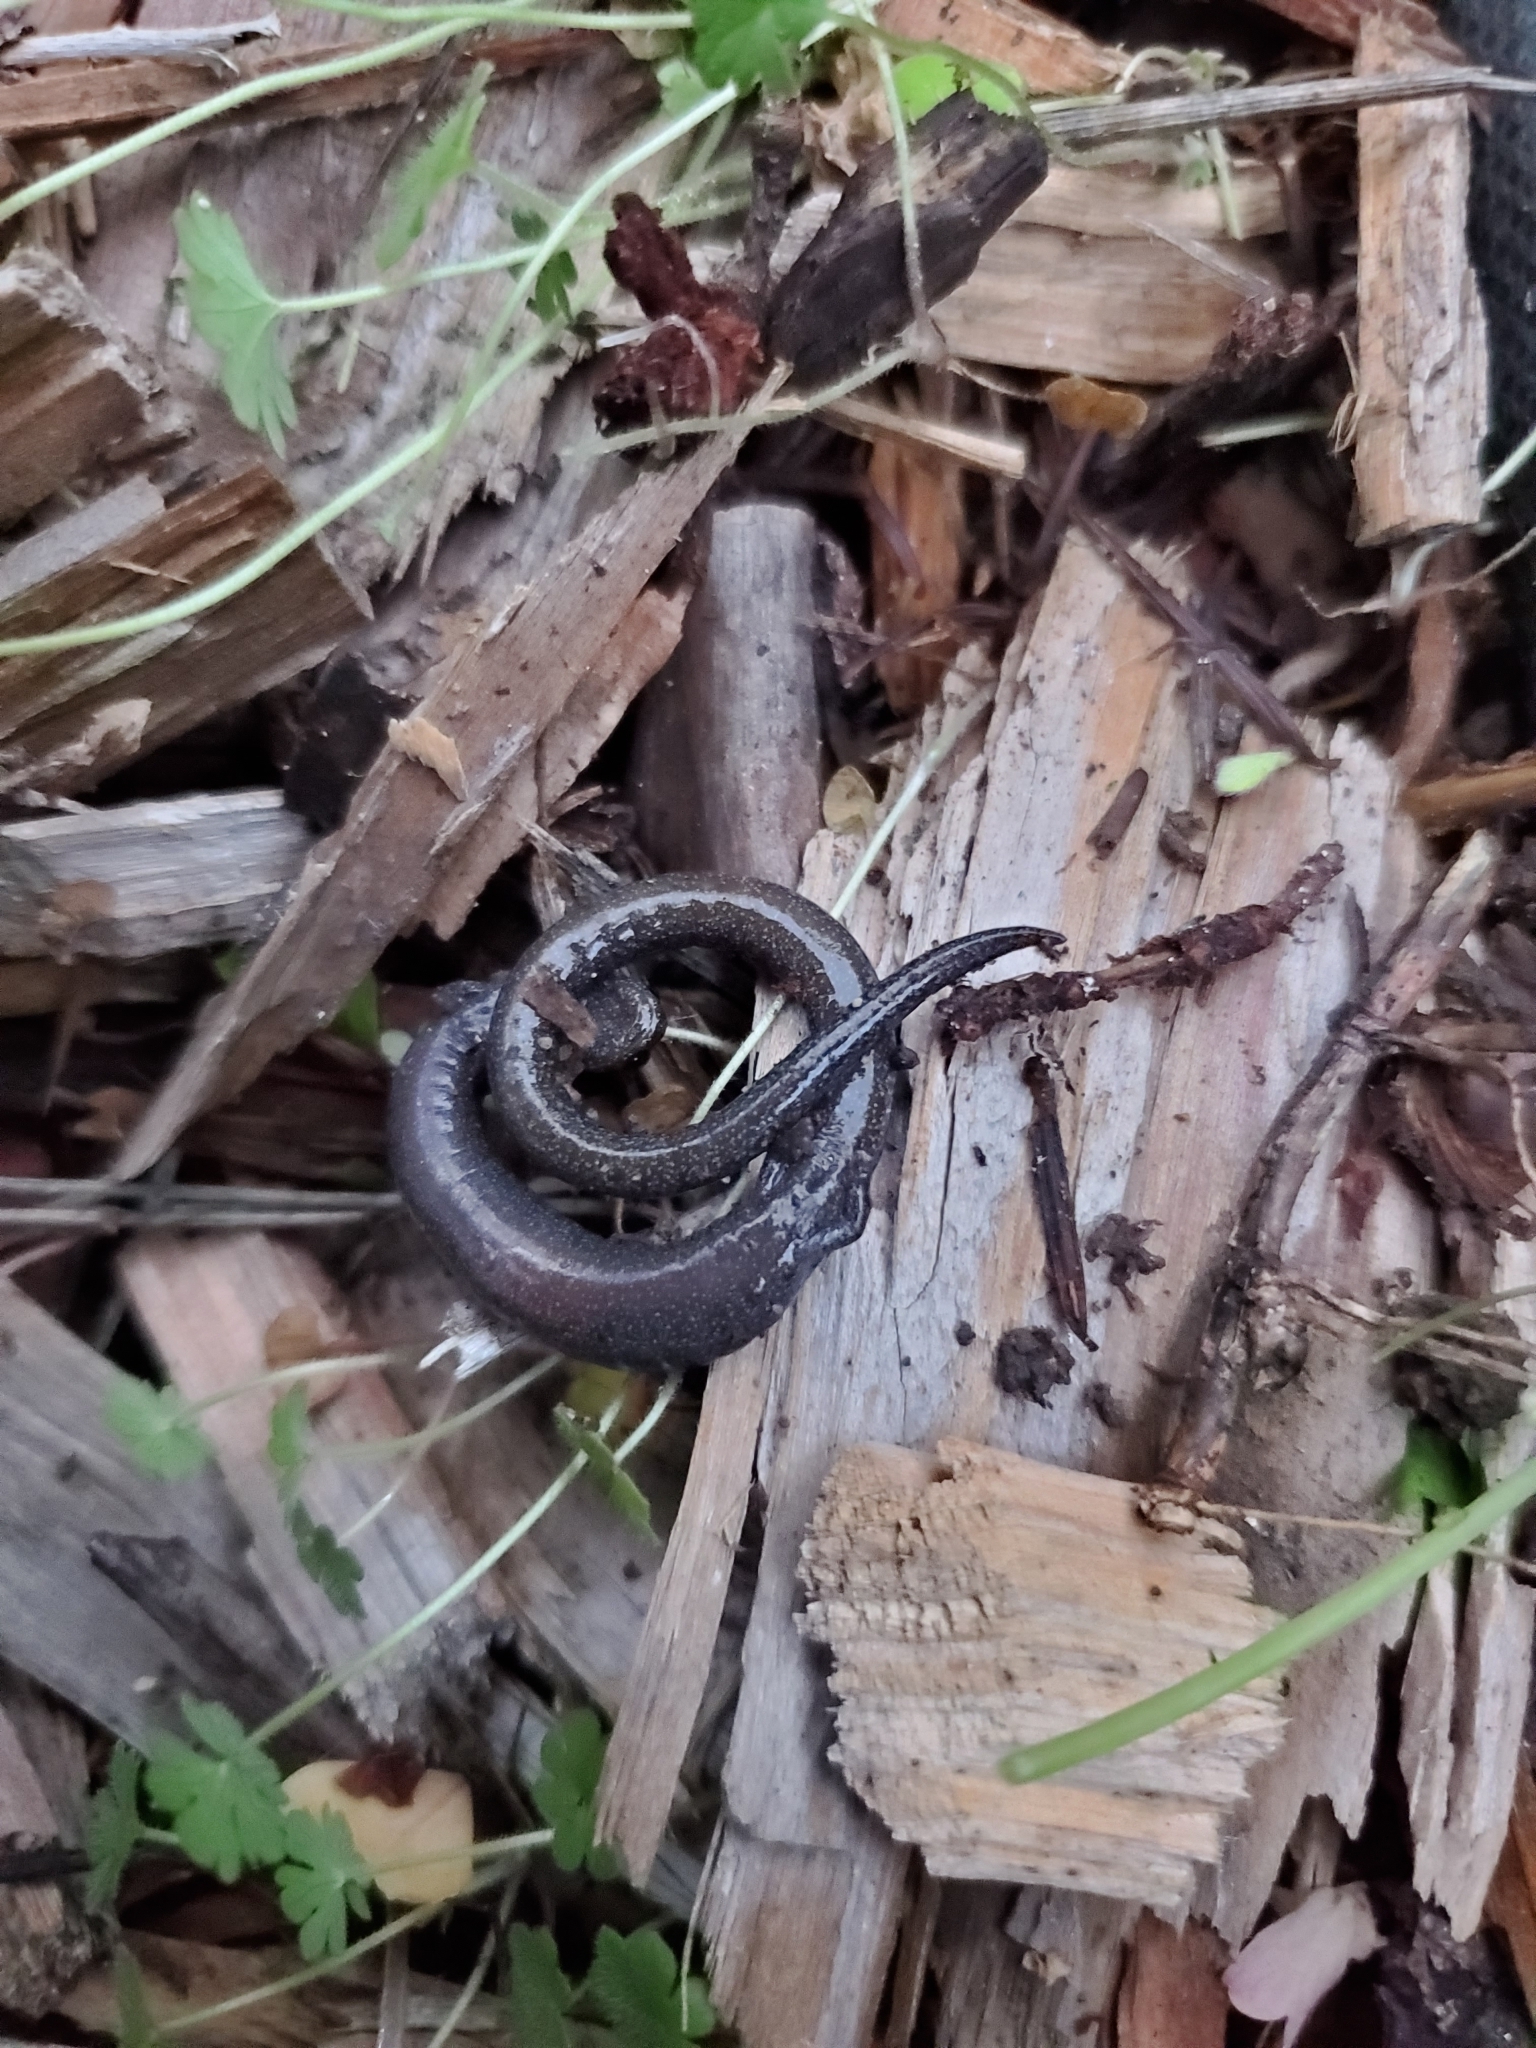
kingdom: Animalia
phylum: Chordata
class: Amphibia
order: Caudata
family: Plethodontidae
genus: Batrachoseps
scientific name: Batrachoseps attenuatus
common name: California slender salamander
